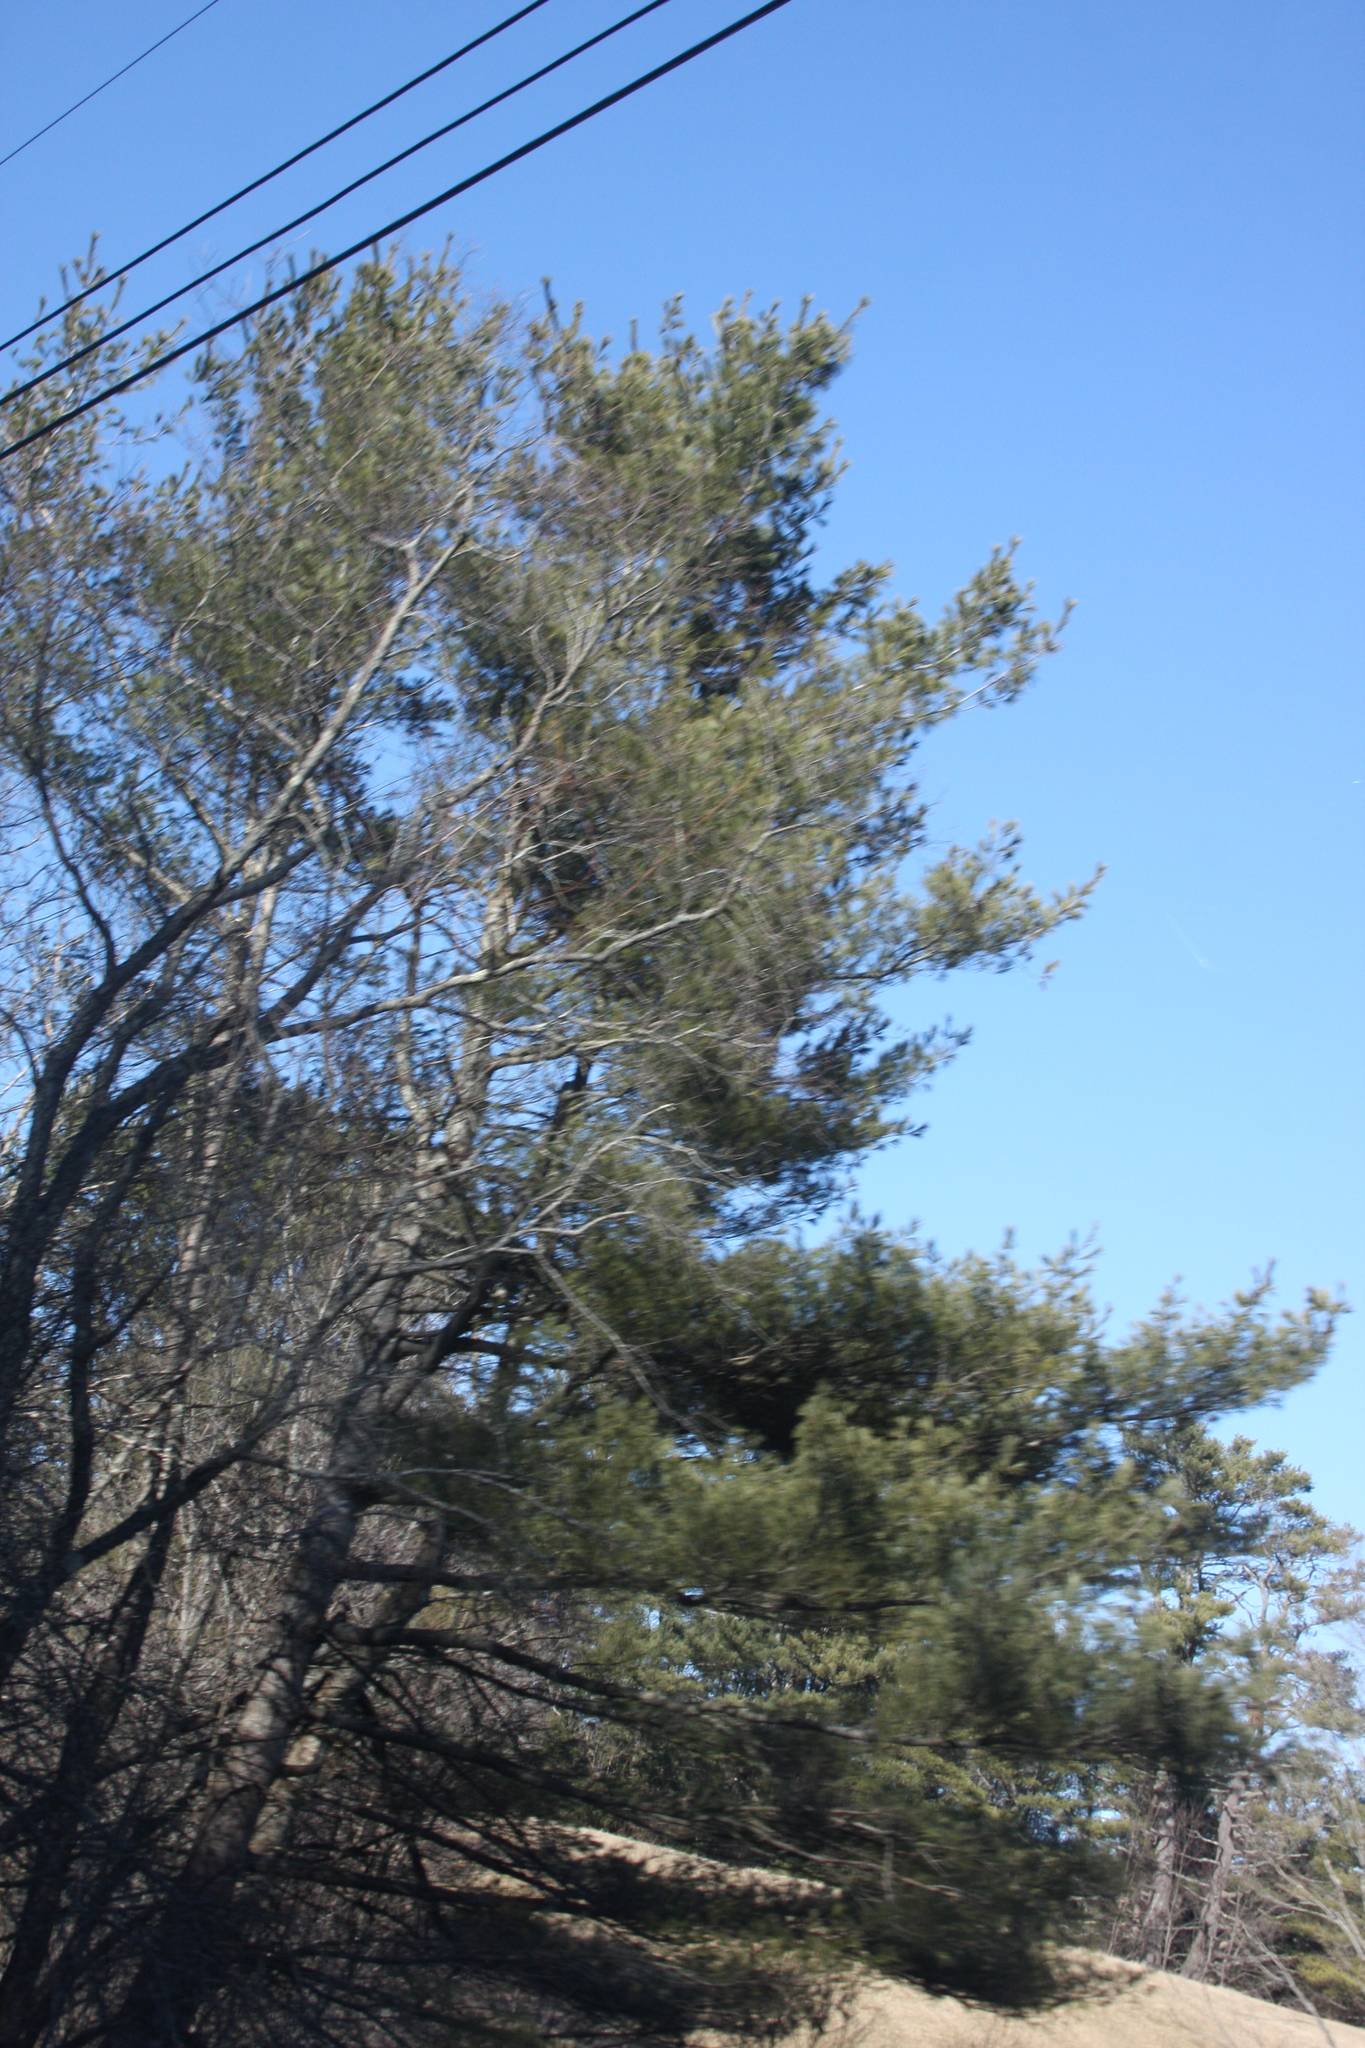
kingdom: Plantae
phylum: Tracheophyta
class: Pinopsida
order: Pinales
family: Pinaceae
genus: Pinus
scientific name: Pinus strobus
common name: Weymouth pine
